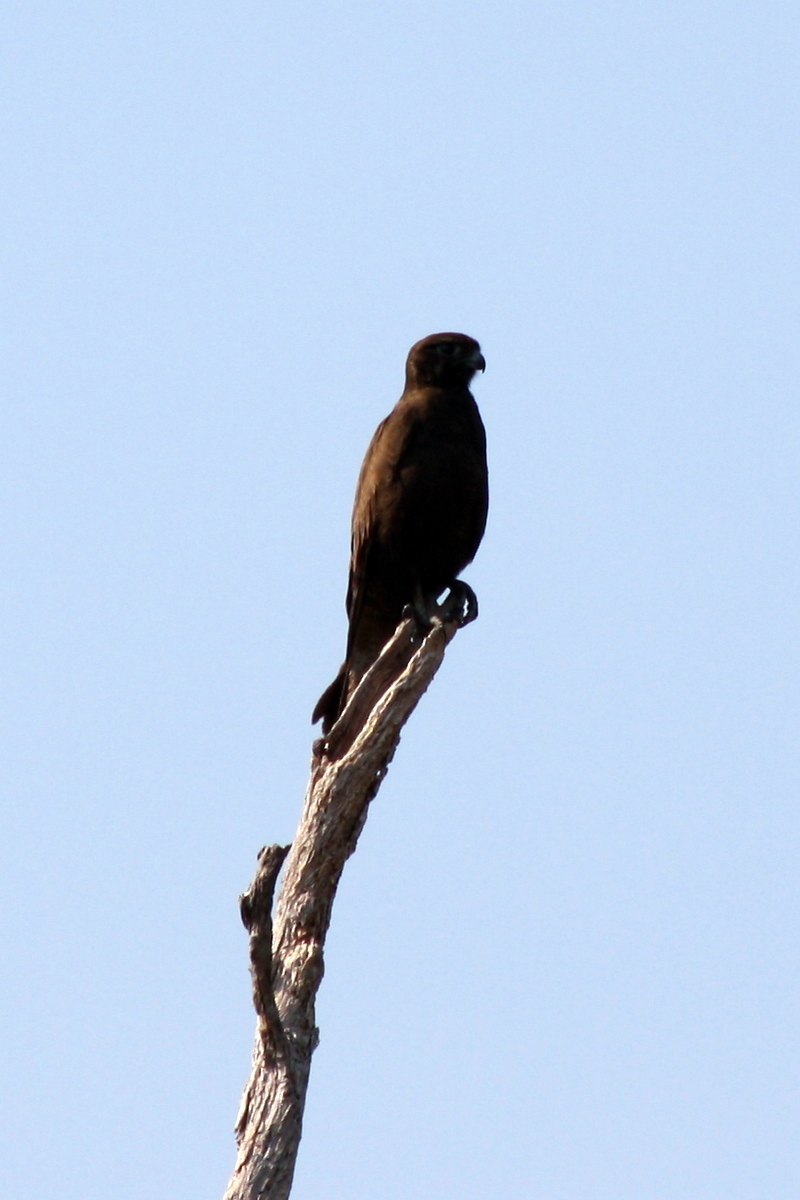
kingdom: Animalia
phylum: Chordata
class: Aves
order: Falconiformes
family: Falconidae
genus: Falco
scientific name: Falco berigora
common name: Brown falcon
